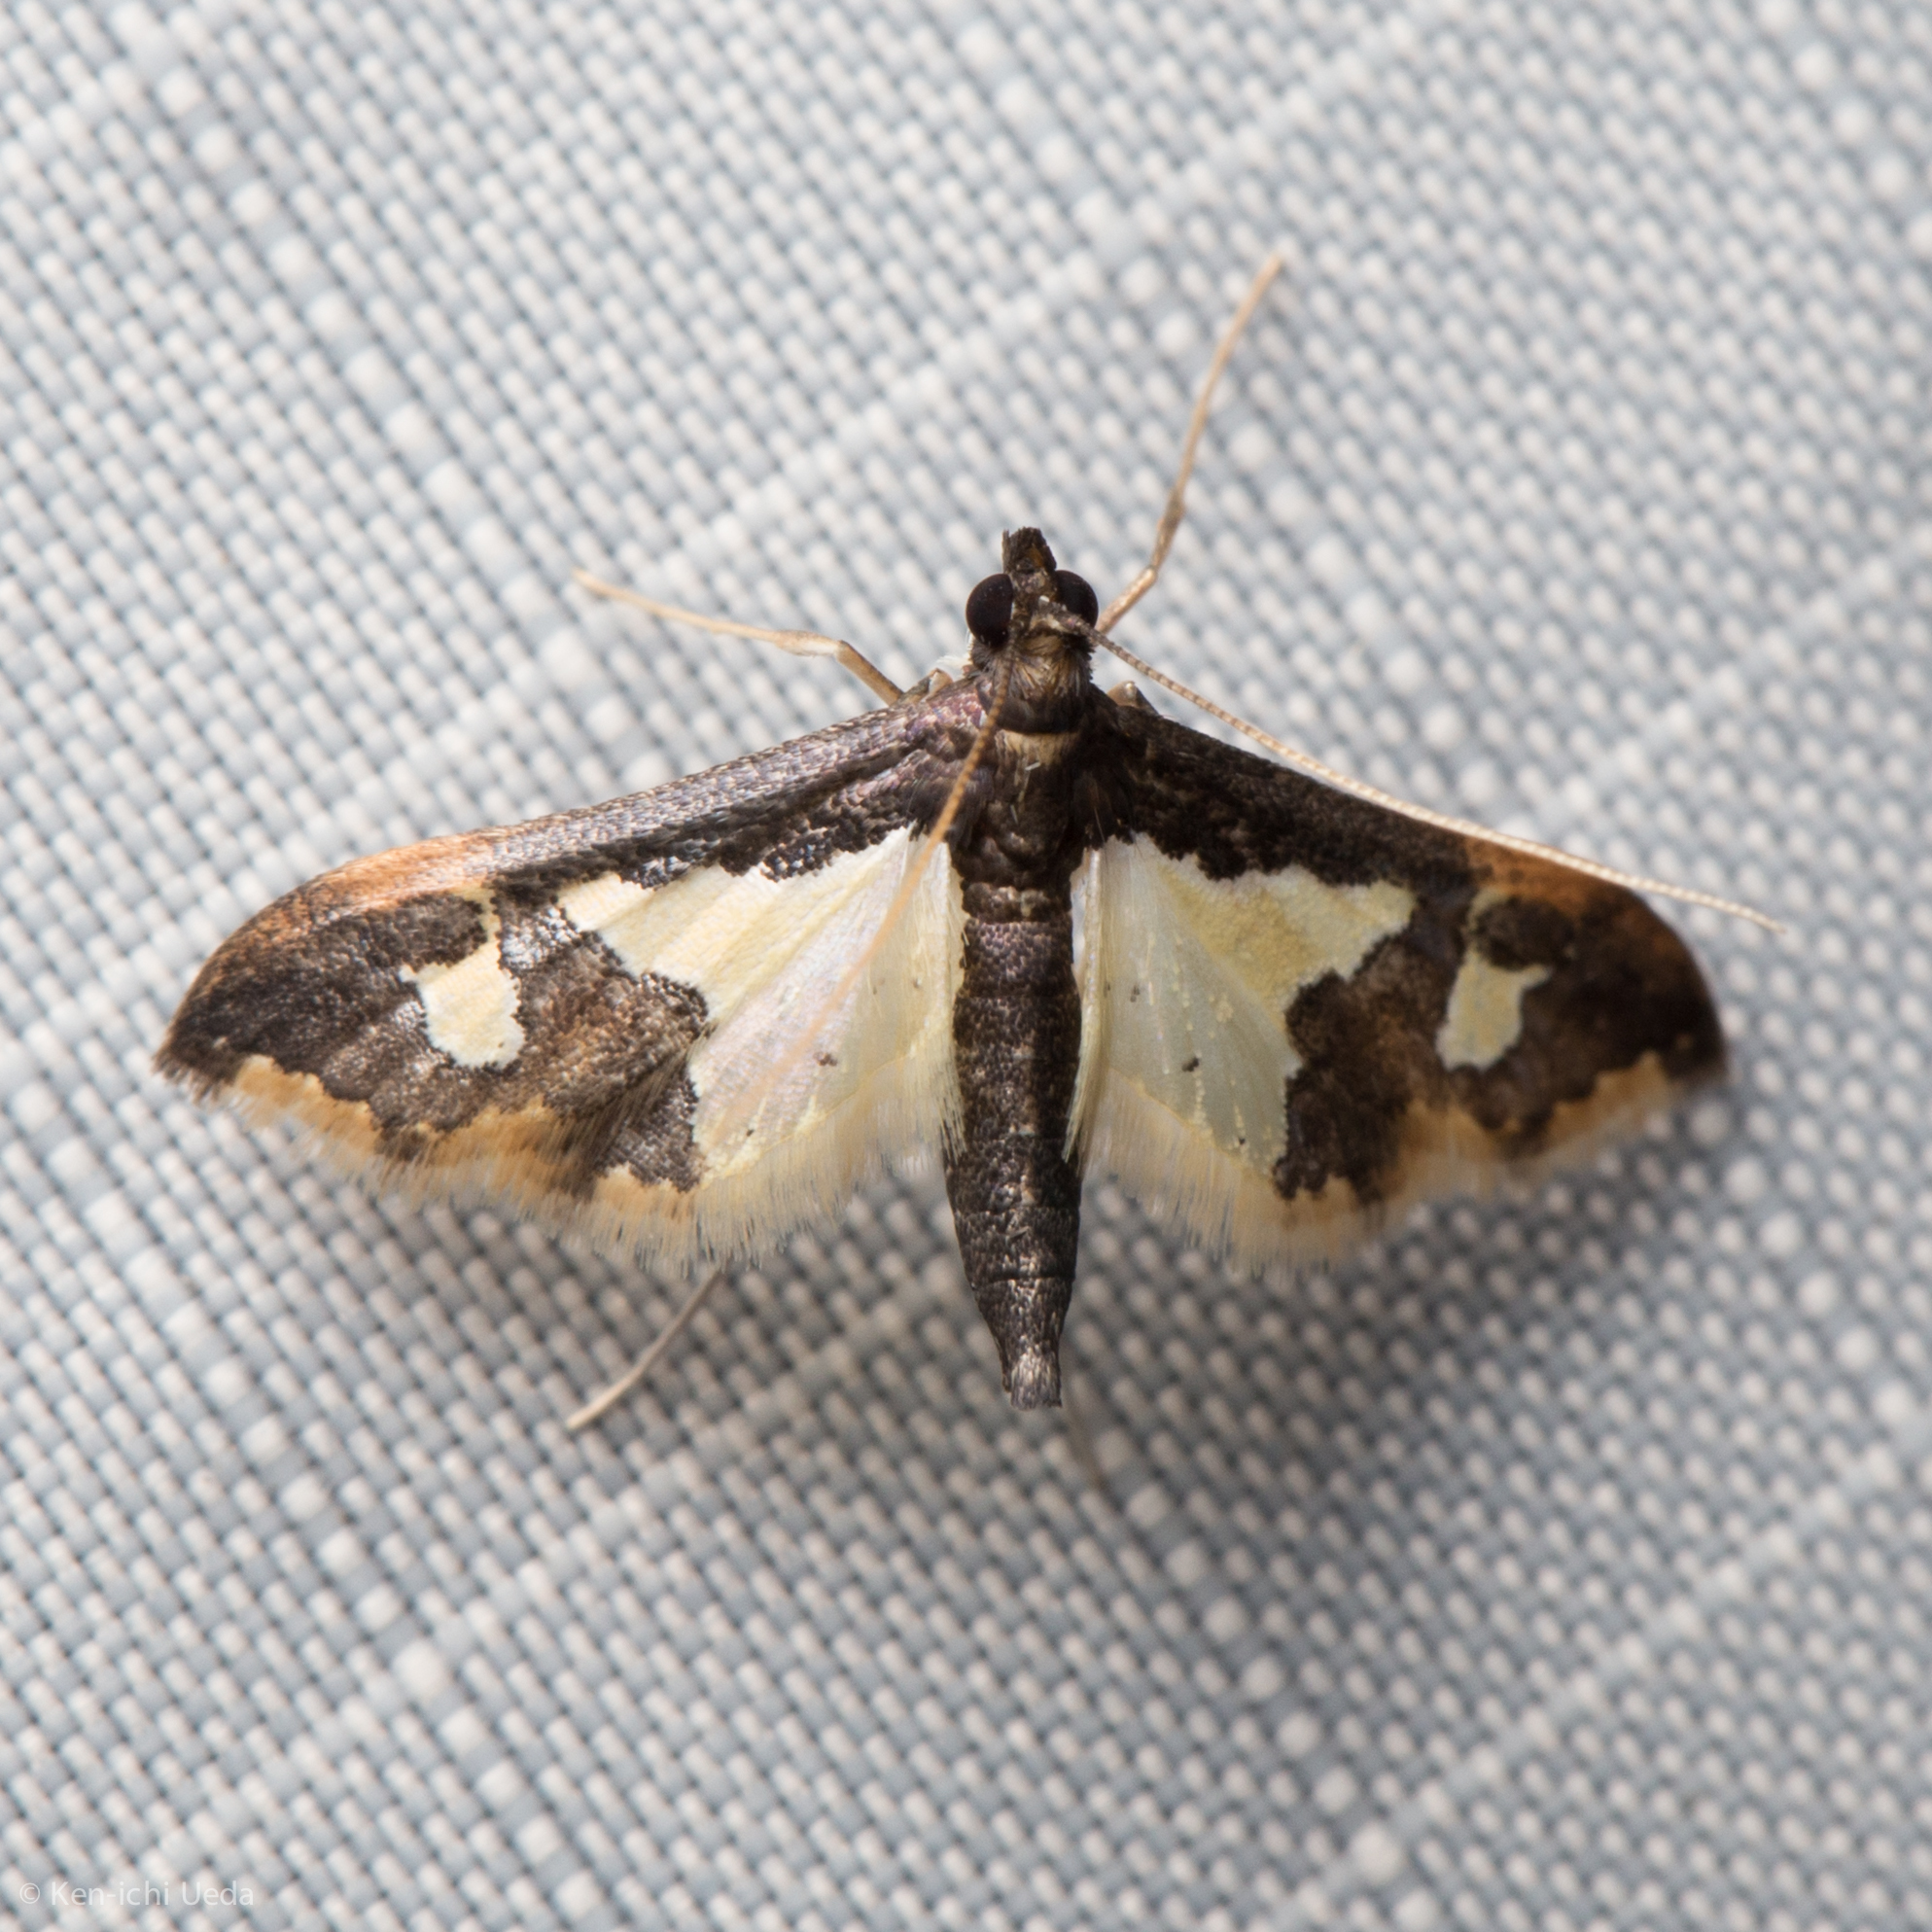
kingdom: Animalia
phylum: Arthropoda
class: Insecta
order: Lepidoptera
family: Crambidae
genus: Gonocausta
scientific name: Gonocausta sabinalis
